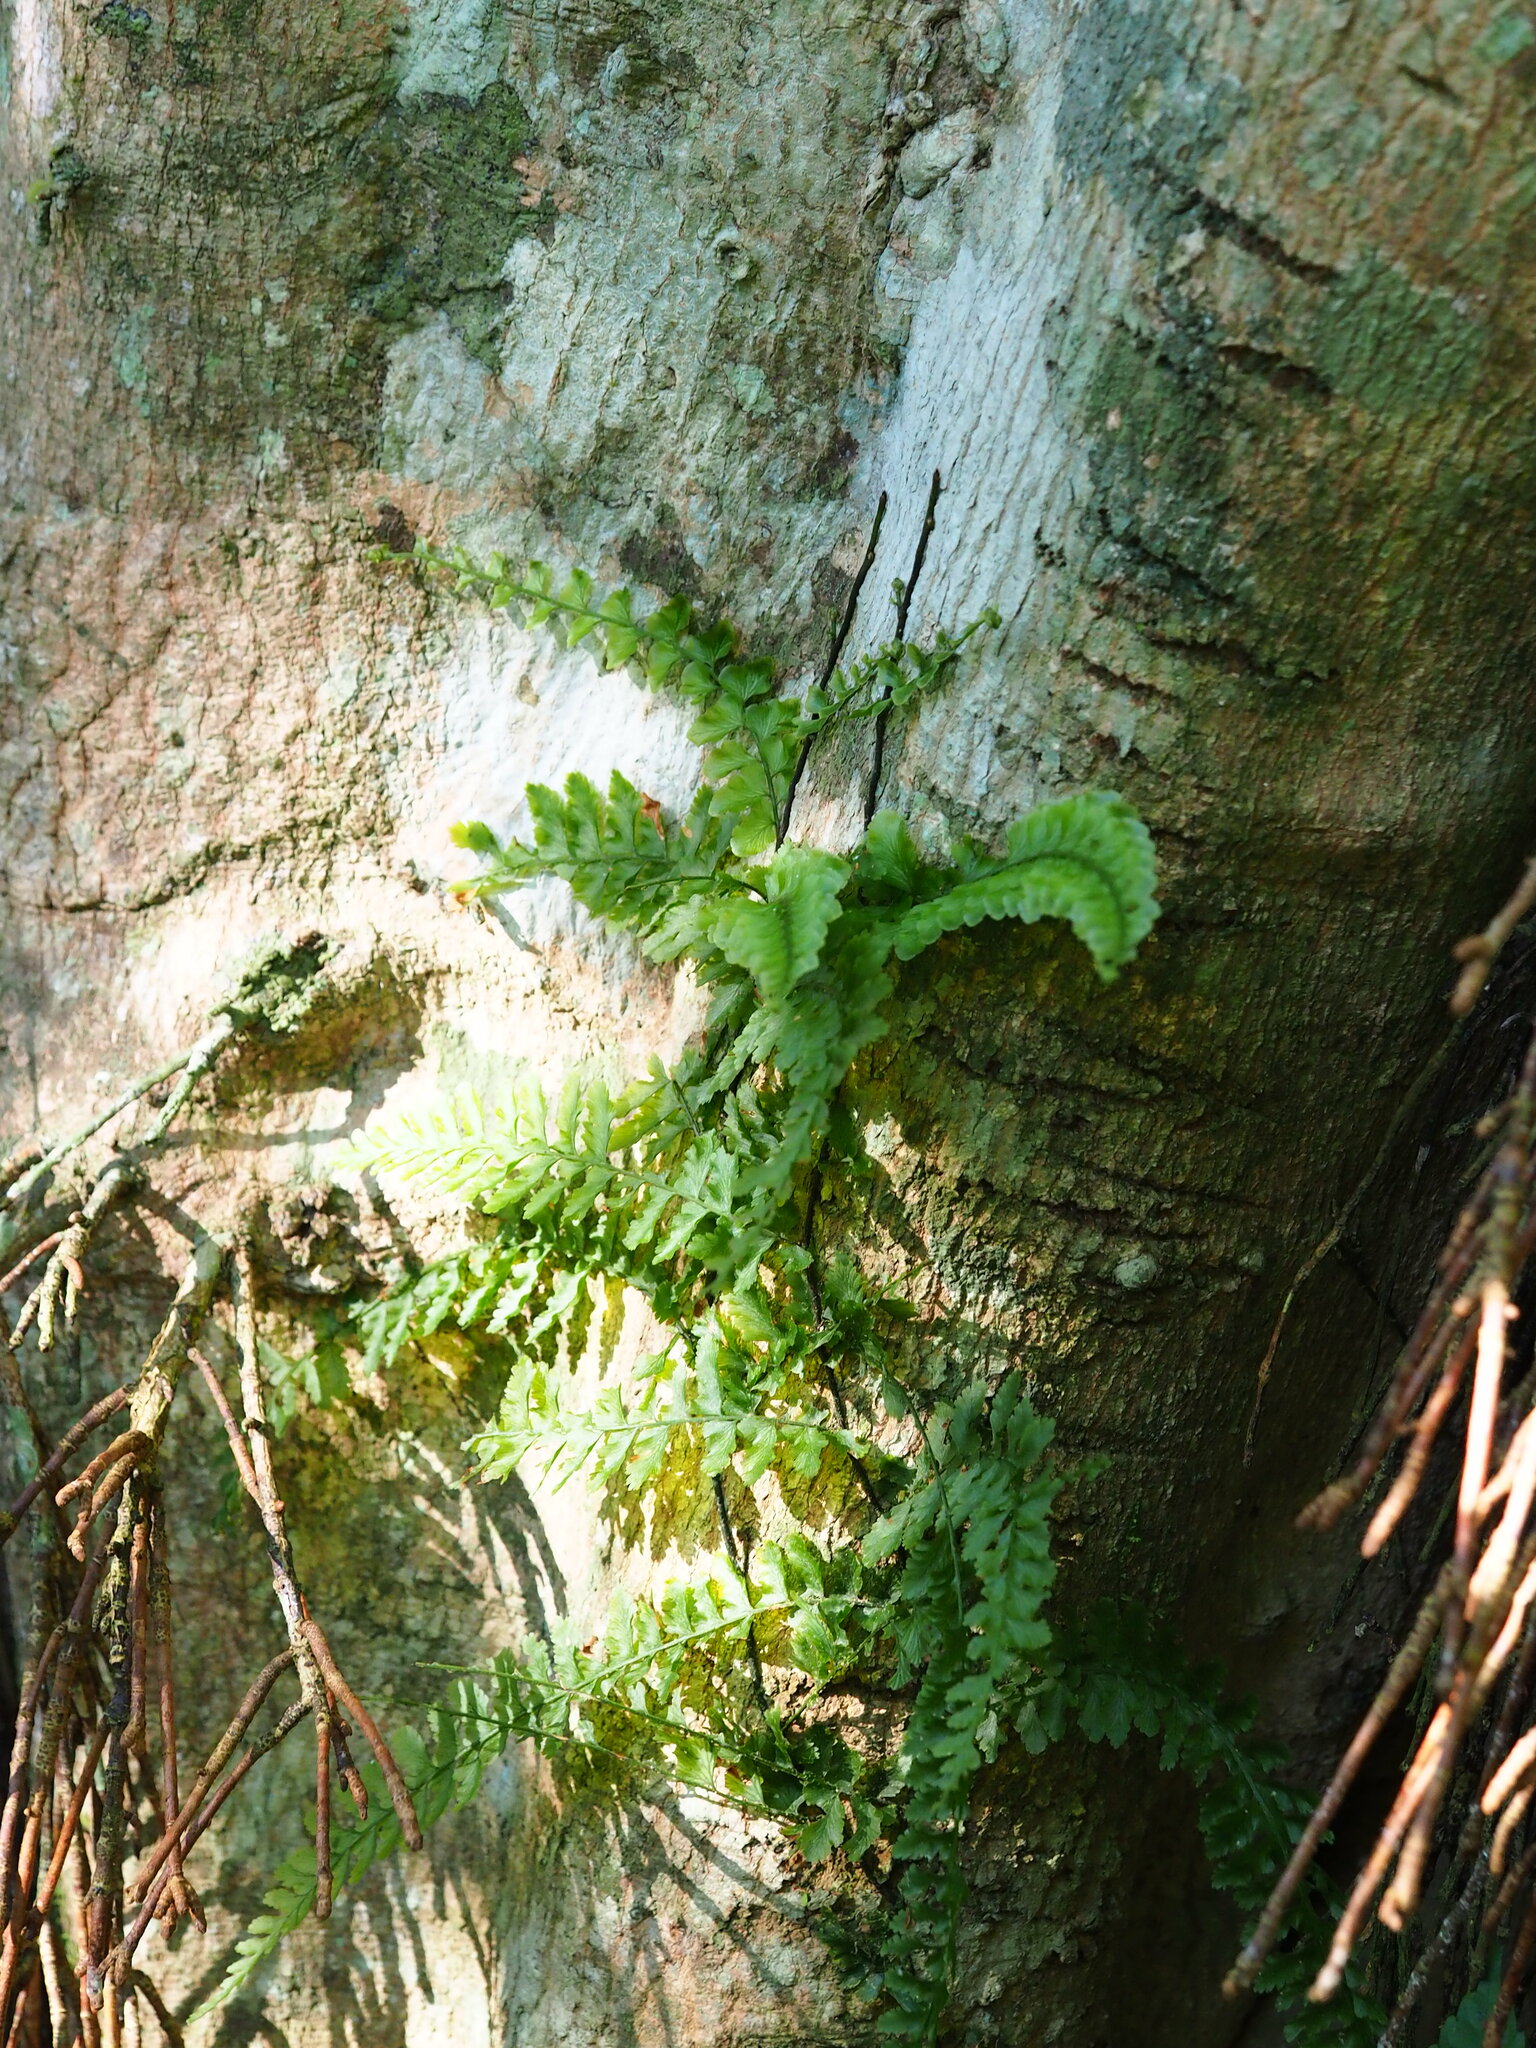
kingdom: Plantae
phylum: Tracheophyta
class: Polypodiopsida
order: Hymenophyllales
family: Hymenophyllaceae
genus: Vandenboschia
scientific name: Vandenboschia auriculata
